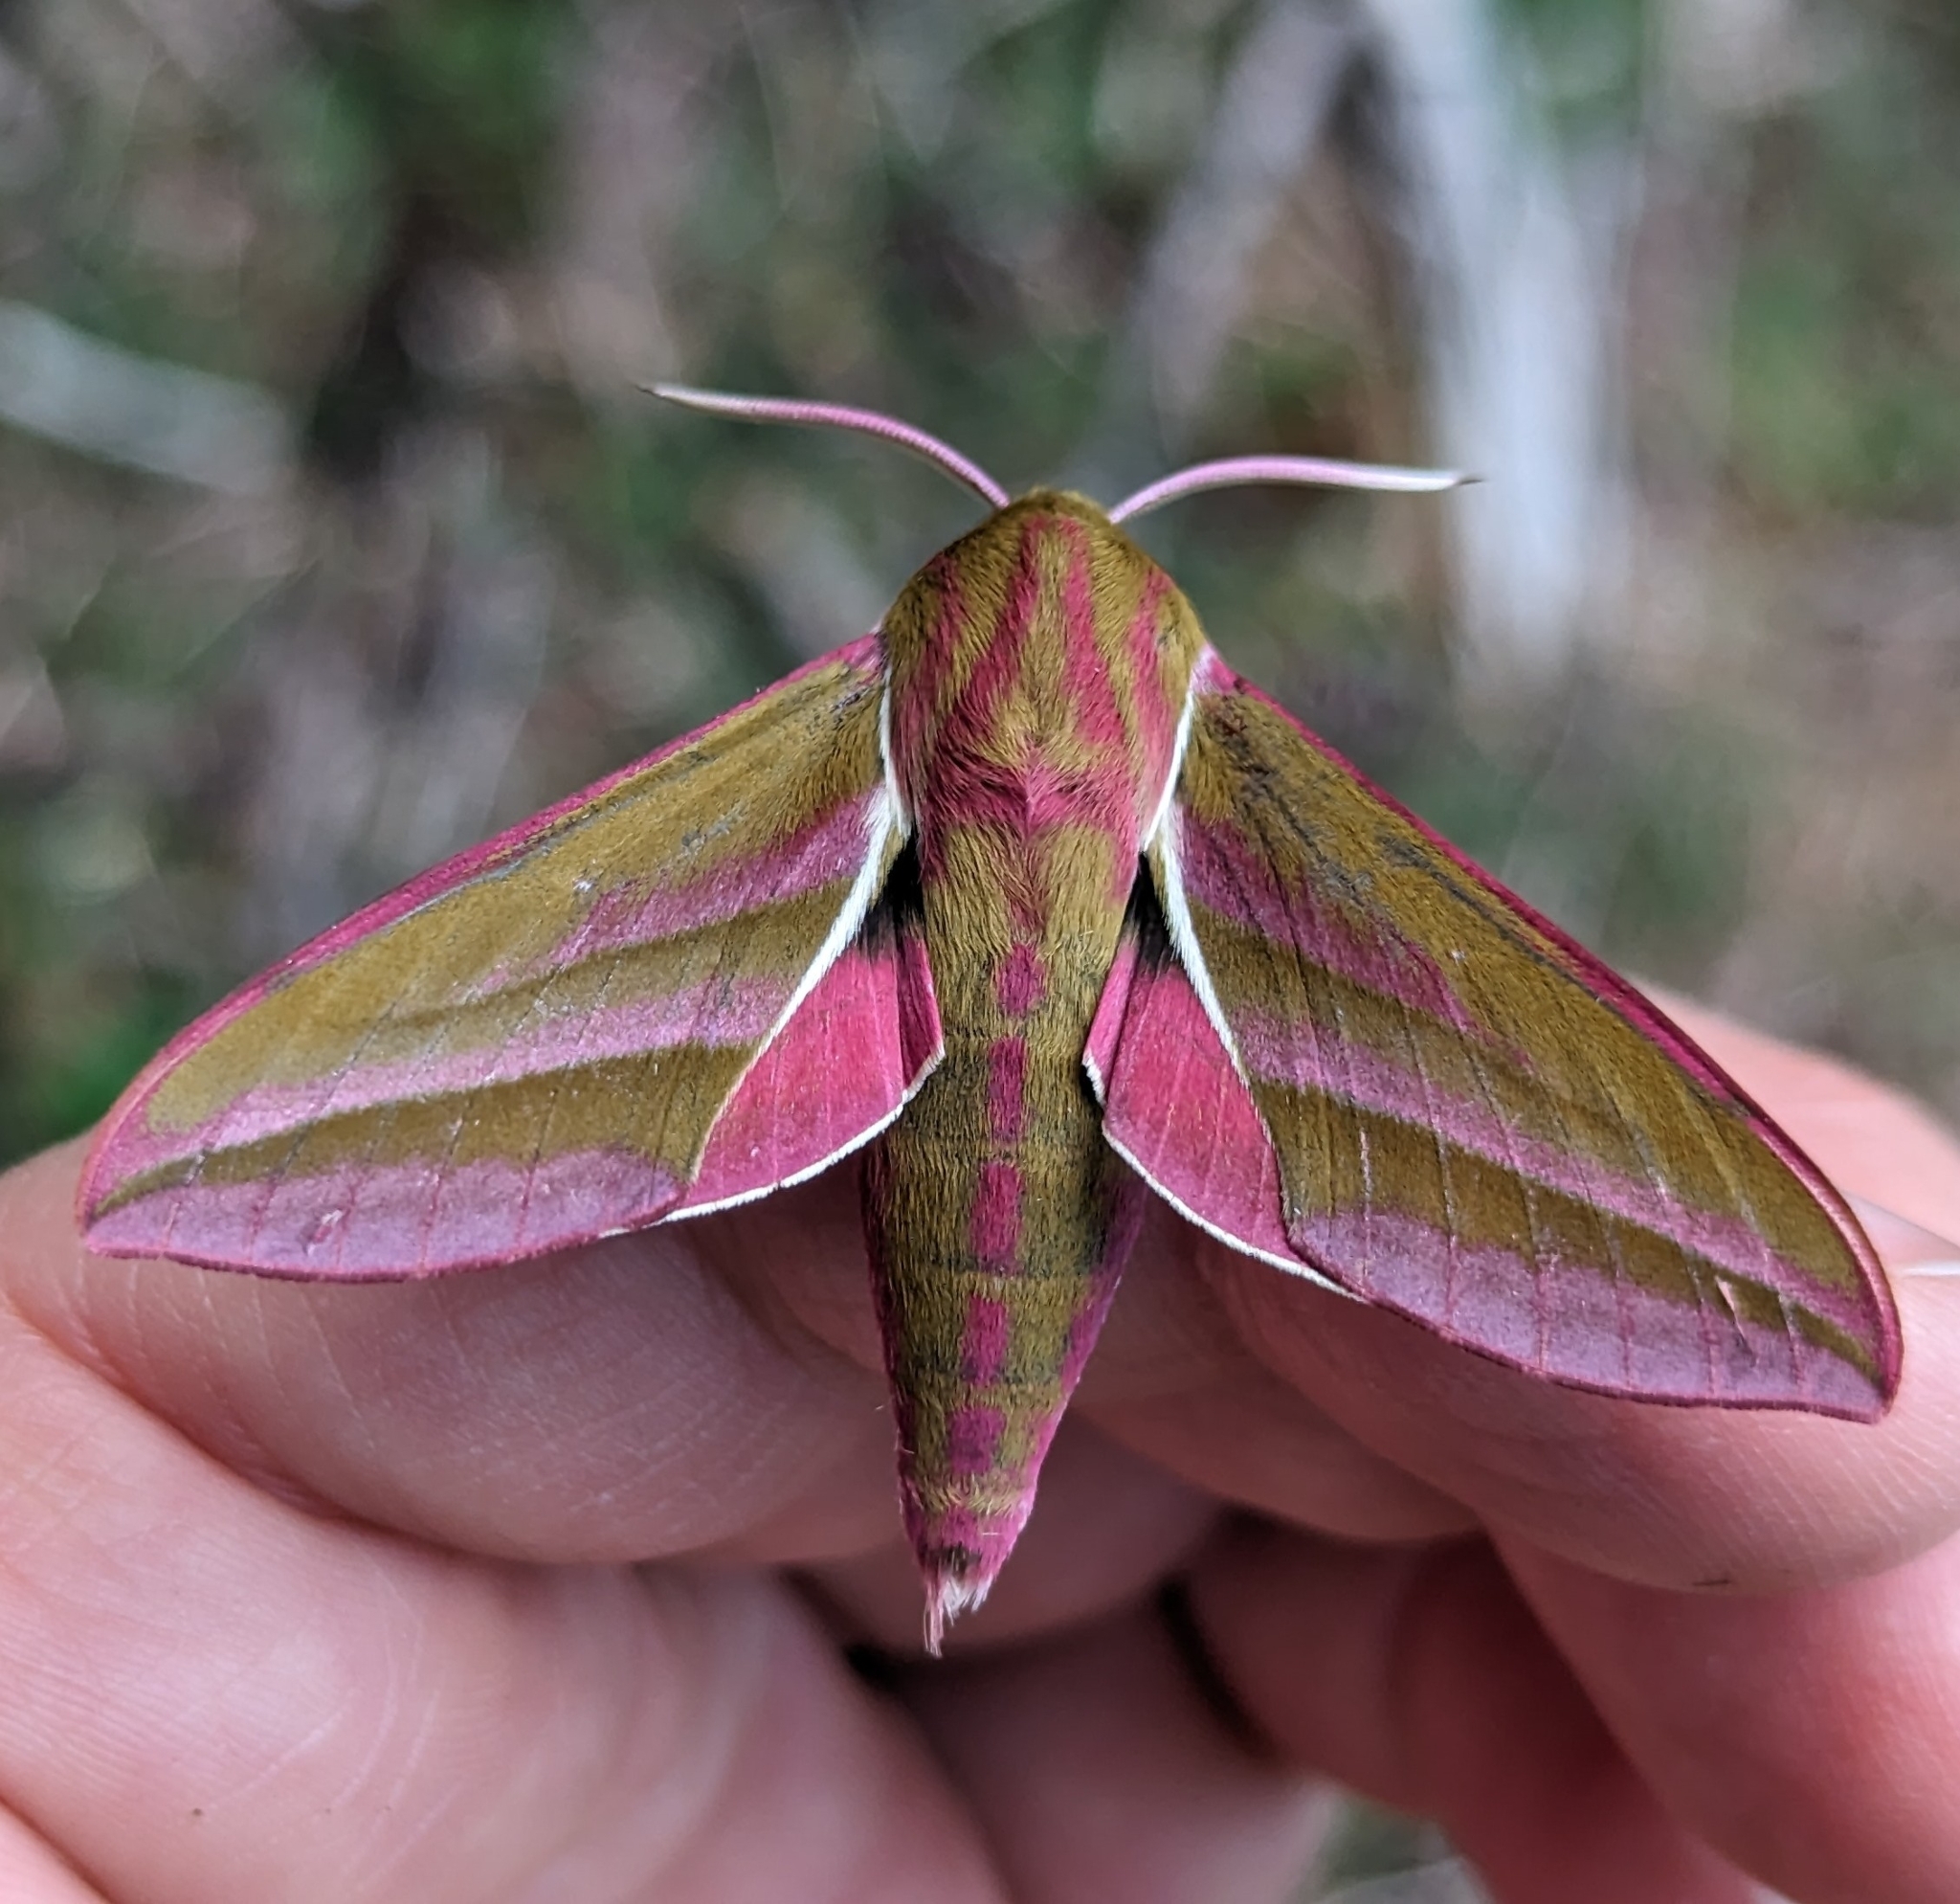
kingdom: Animalia
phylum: Arthropoda
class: Insecta
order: Lepidoptera
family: Sphingidae
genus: Deilephila
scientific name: Deilephila elpenor
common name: Elephant hawk-moth
